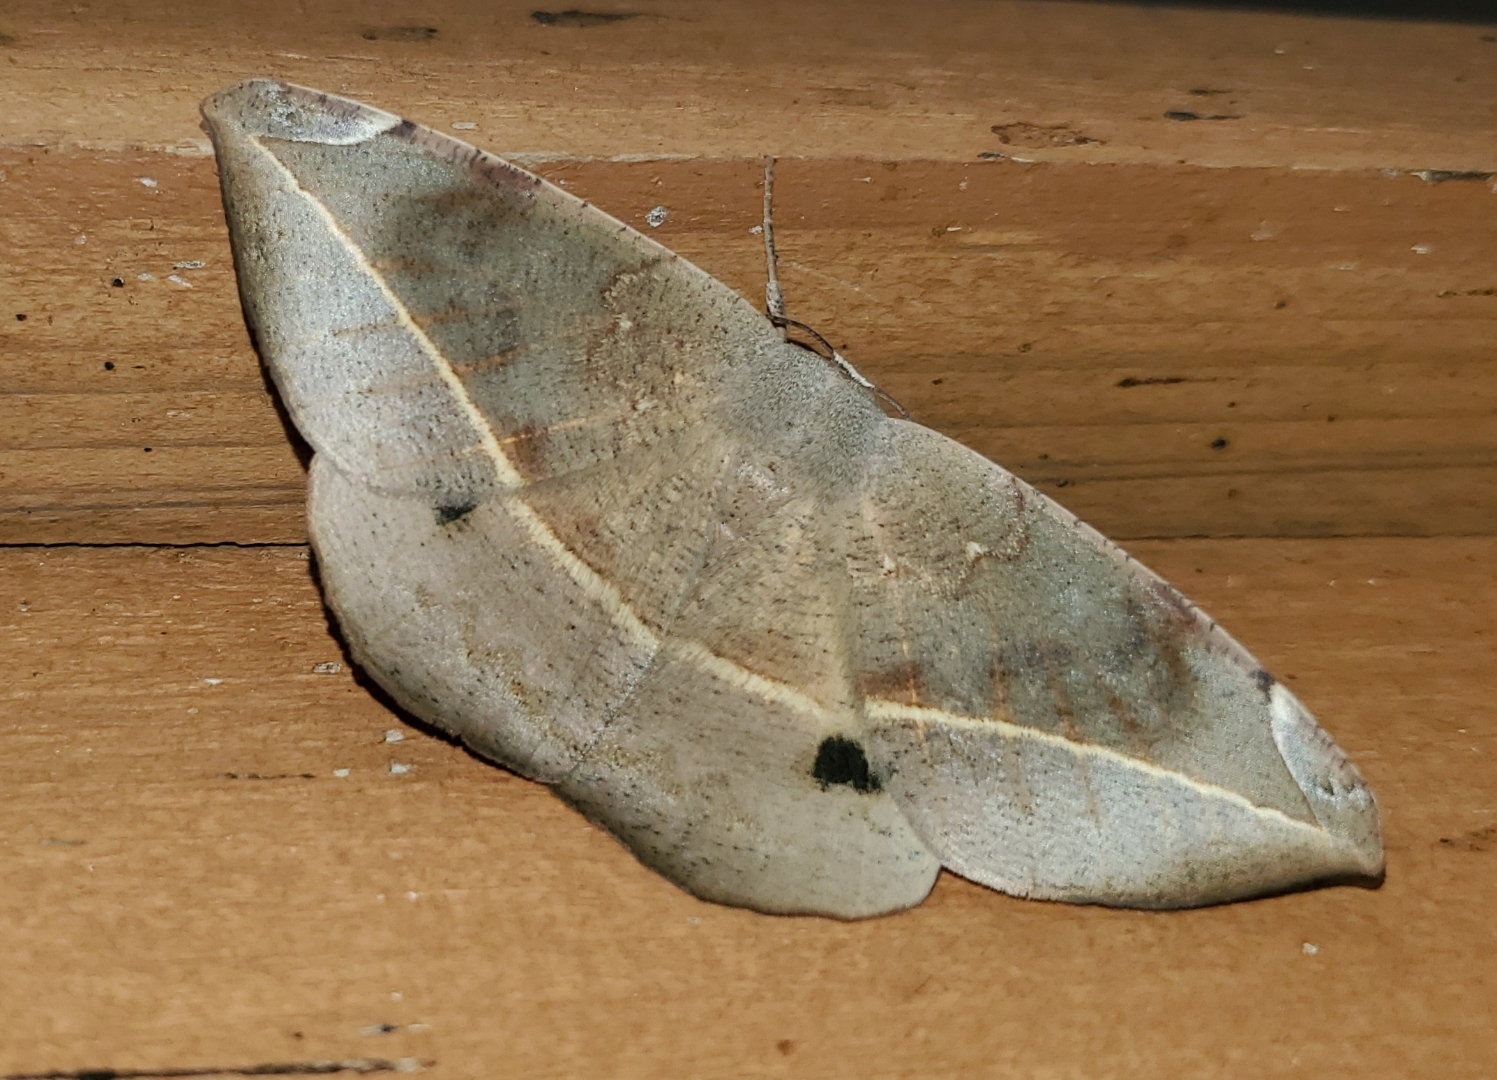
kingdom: Animalia
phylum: Arthropoda
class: Insecta
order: Lepidoptera
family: Geometridae
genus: Oxydia
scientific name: Oxydia vesulia
